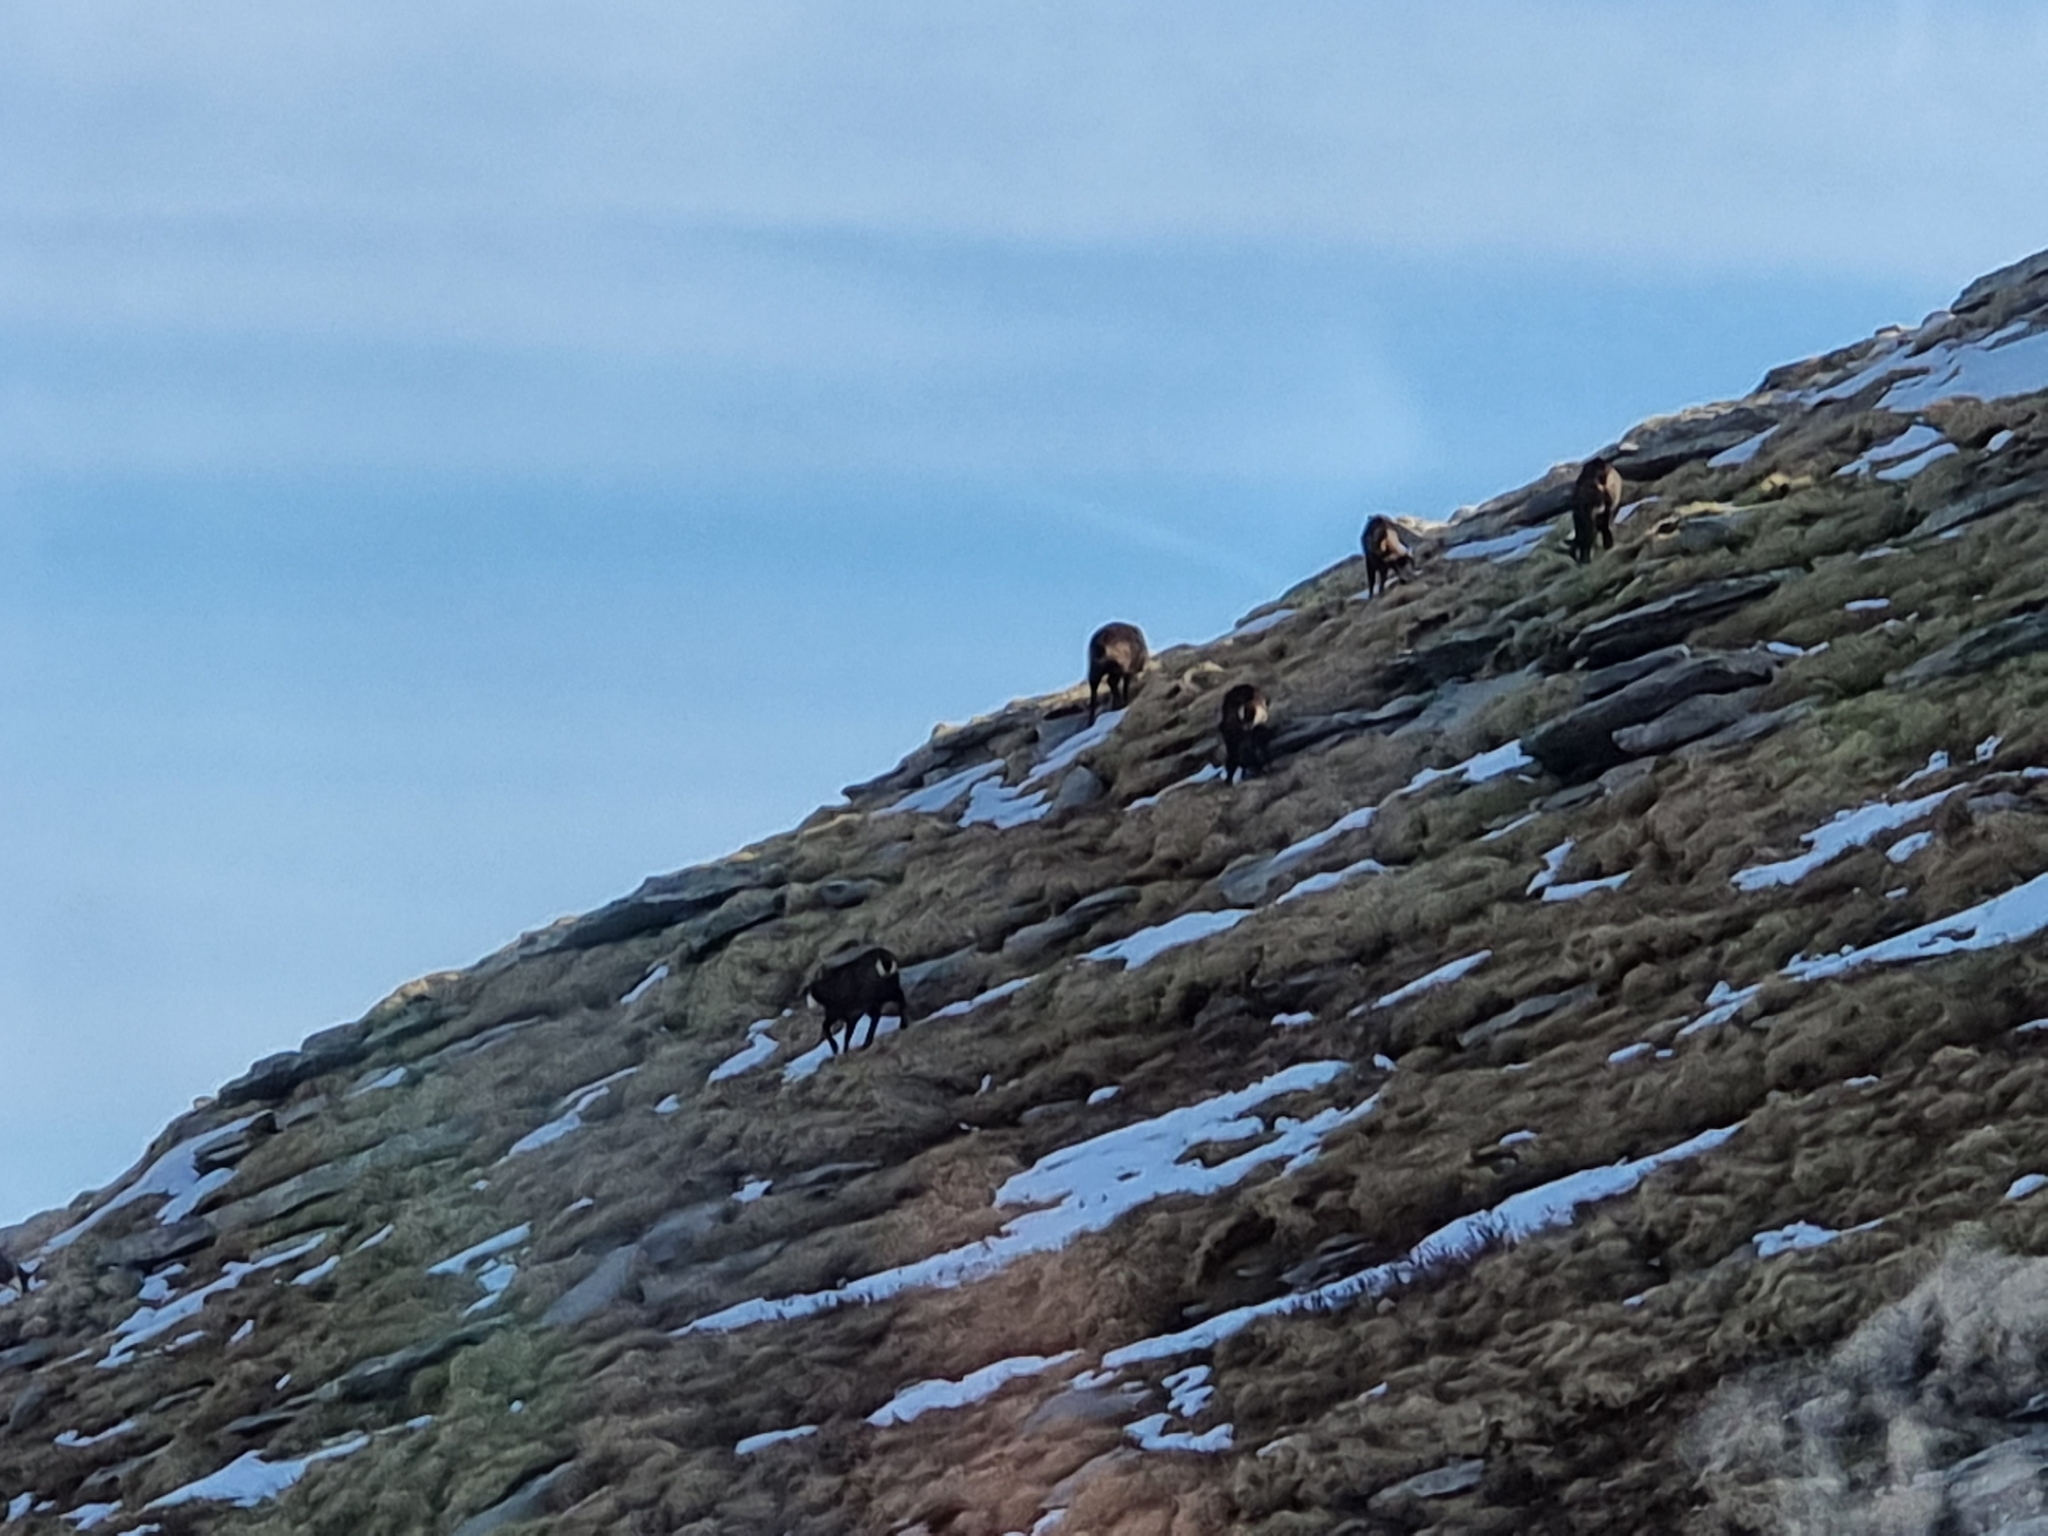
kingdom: Animalia
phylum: Chordata
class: Mammalia
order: Artiodactyla
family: Bovidae
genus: Rupicapra
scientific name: Rupicapra rupicapra
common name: Chamois
